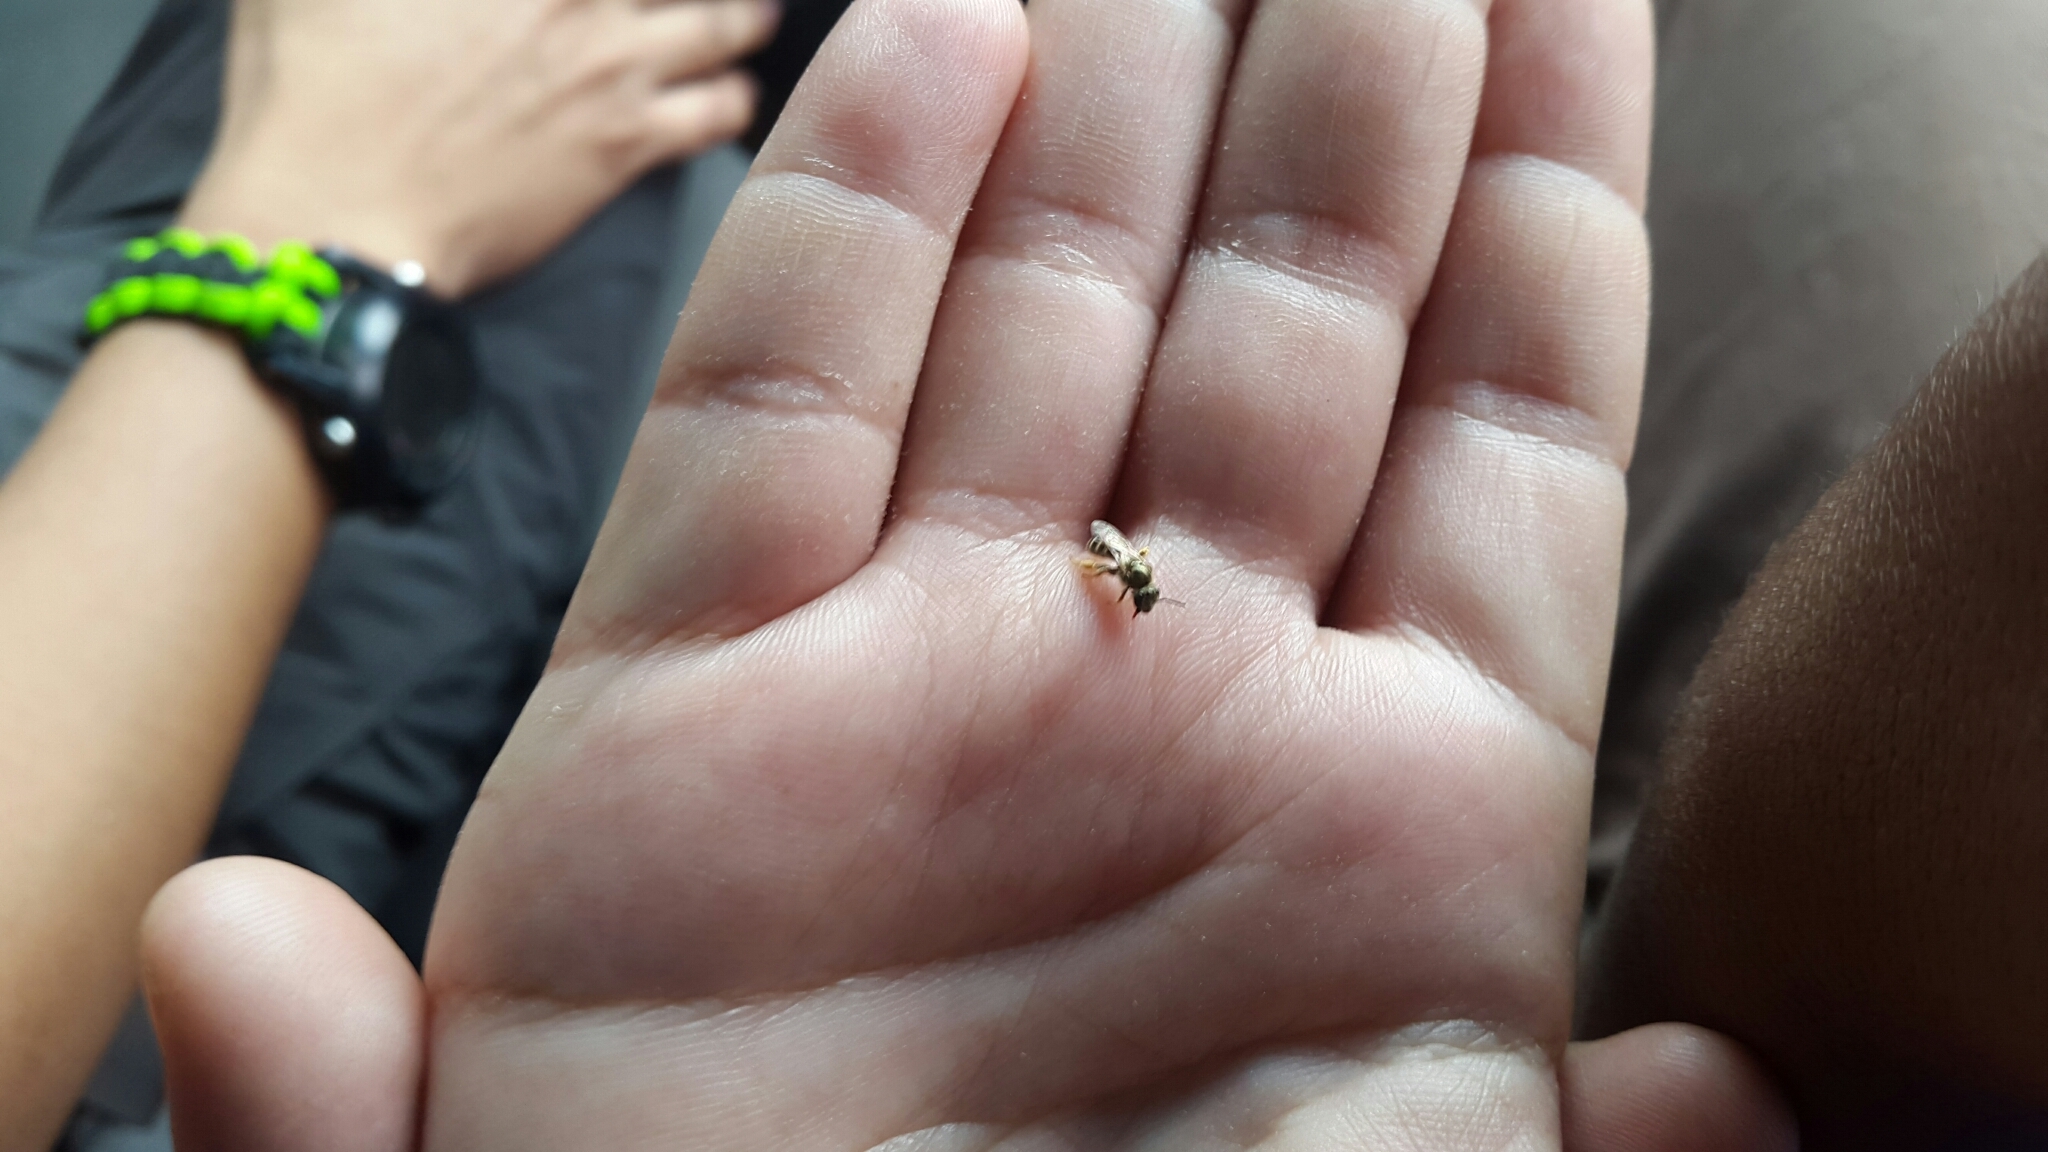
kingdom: Animalia
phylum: Arthropoda
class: Insecta
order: Hymenoptera
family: Halictidae
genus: Halictus
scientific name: Halictus hesperus
